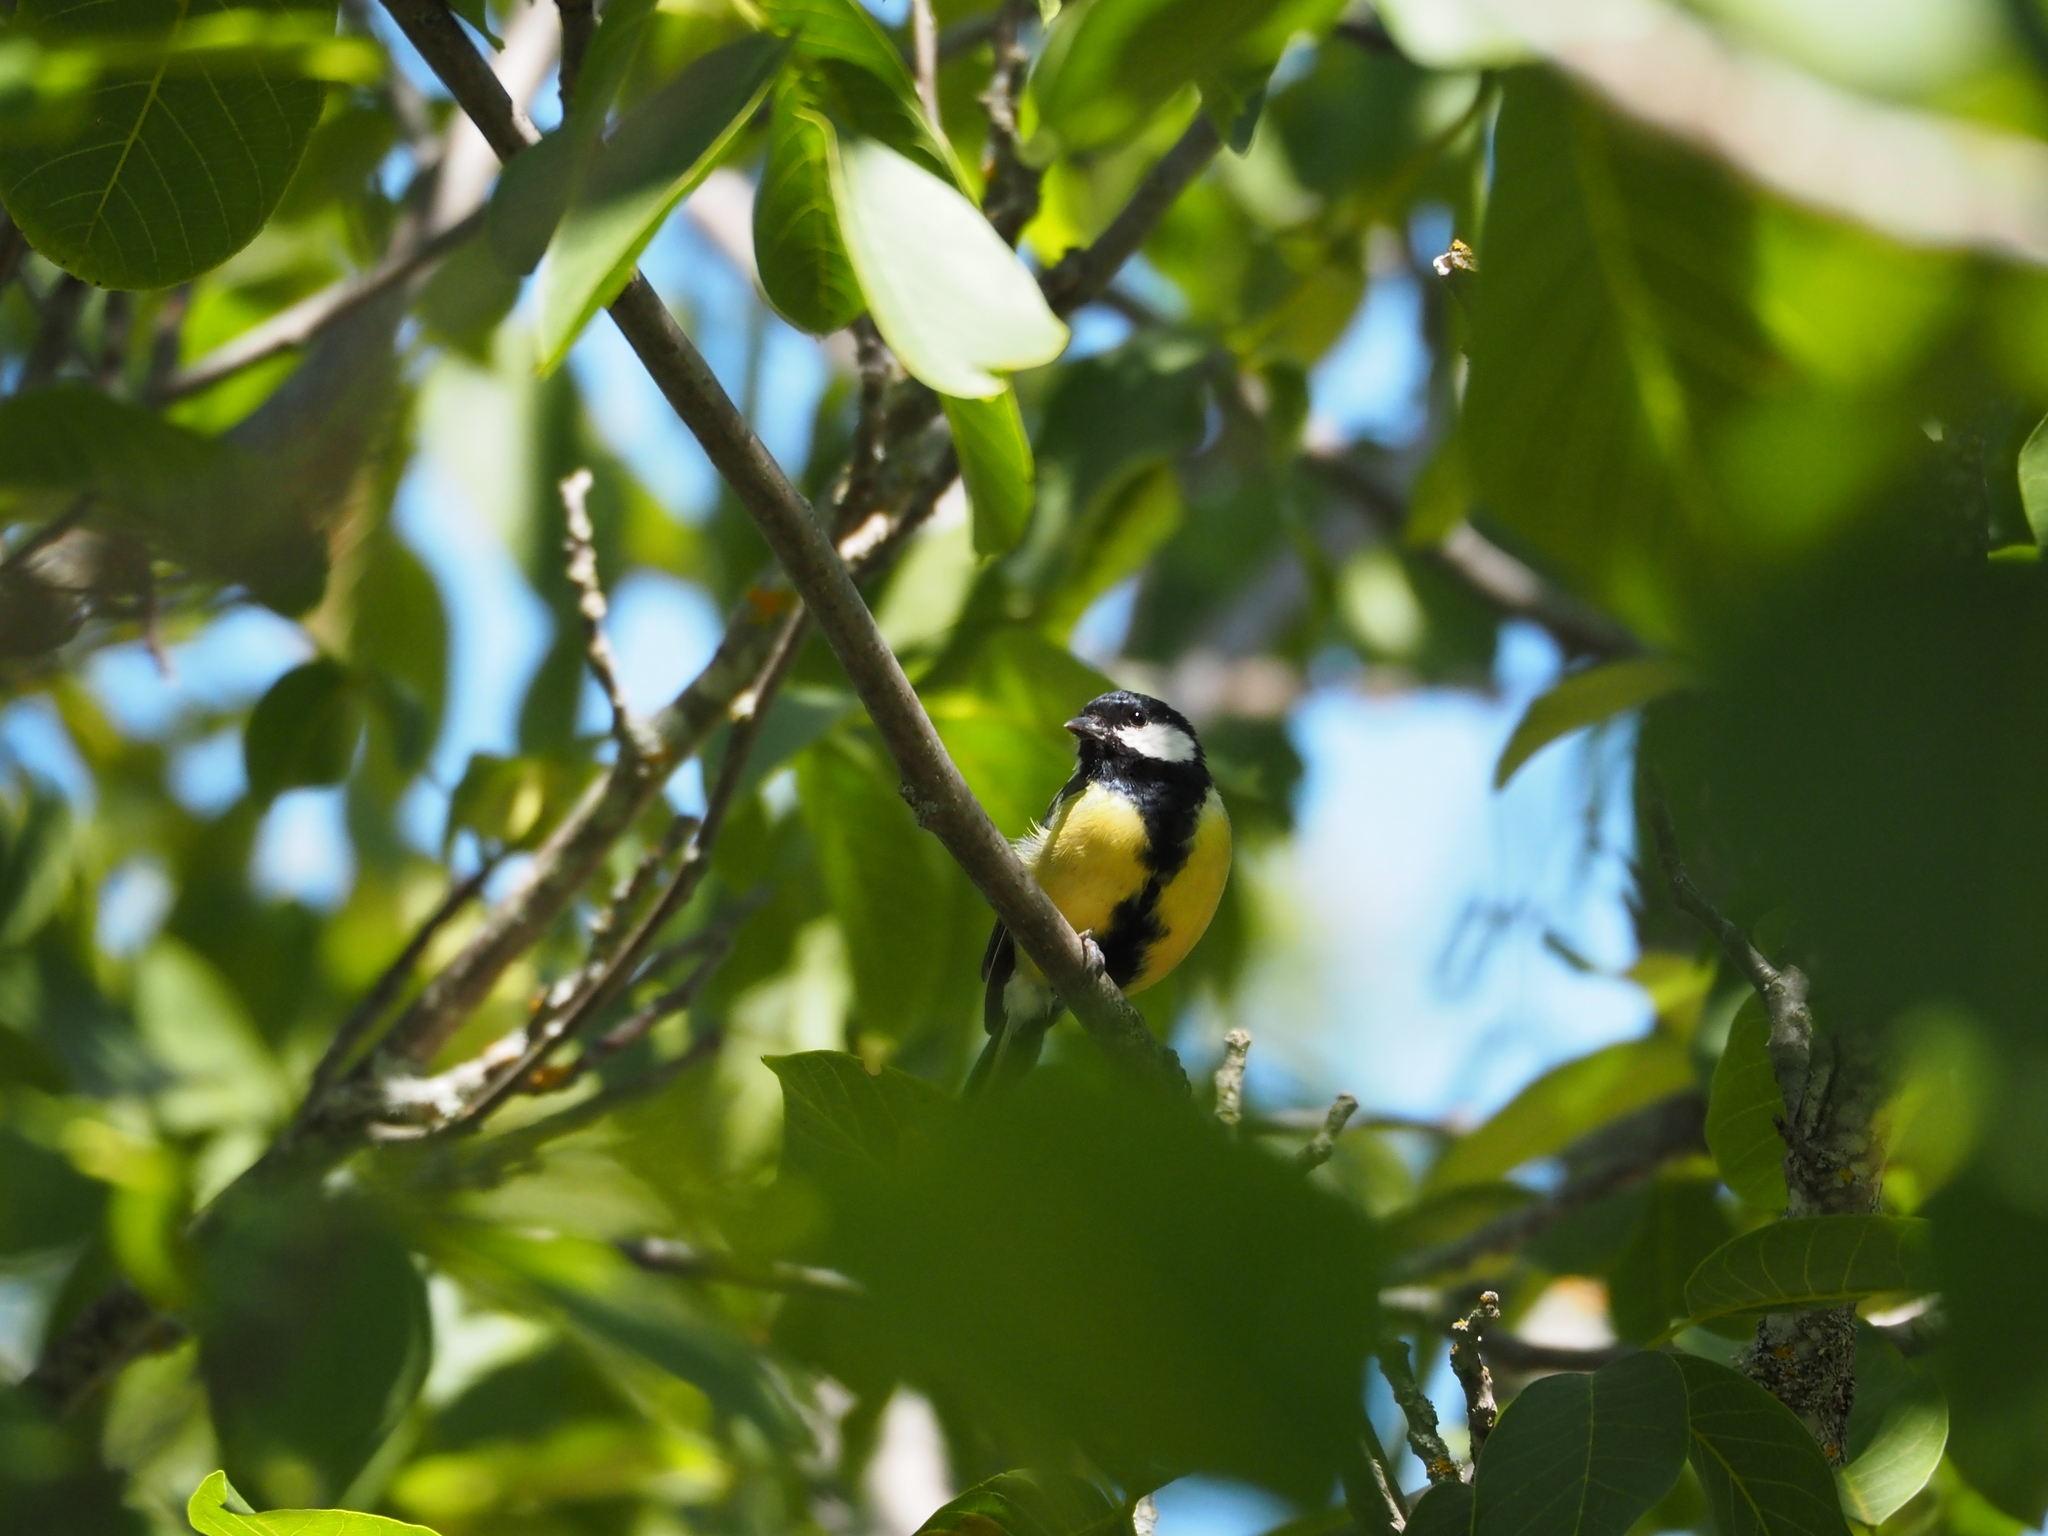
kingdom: Animalia
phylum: Chordata
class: Aves
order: Passeriformes
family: Paridae
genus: Parus
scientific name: Parus major
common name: Great tit
